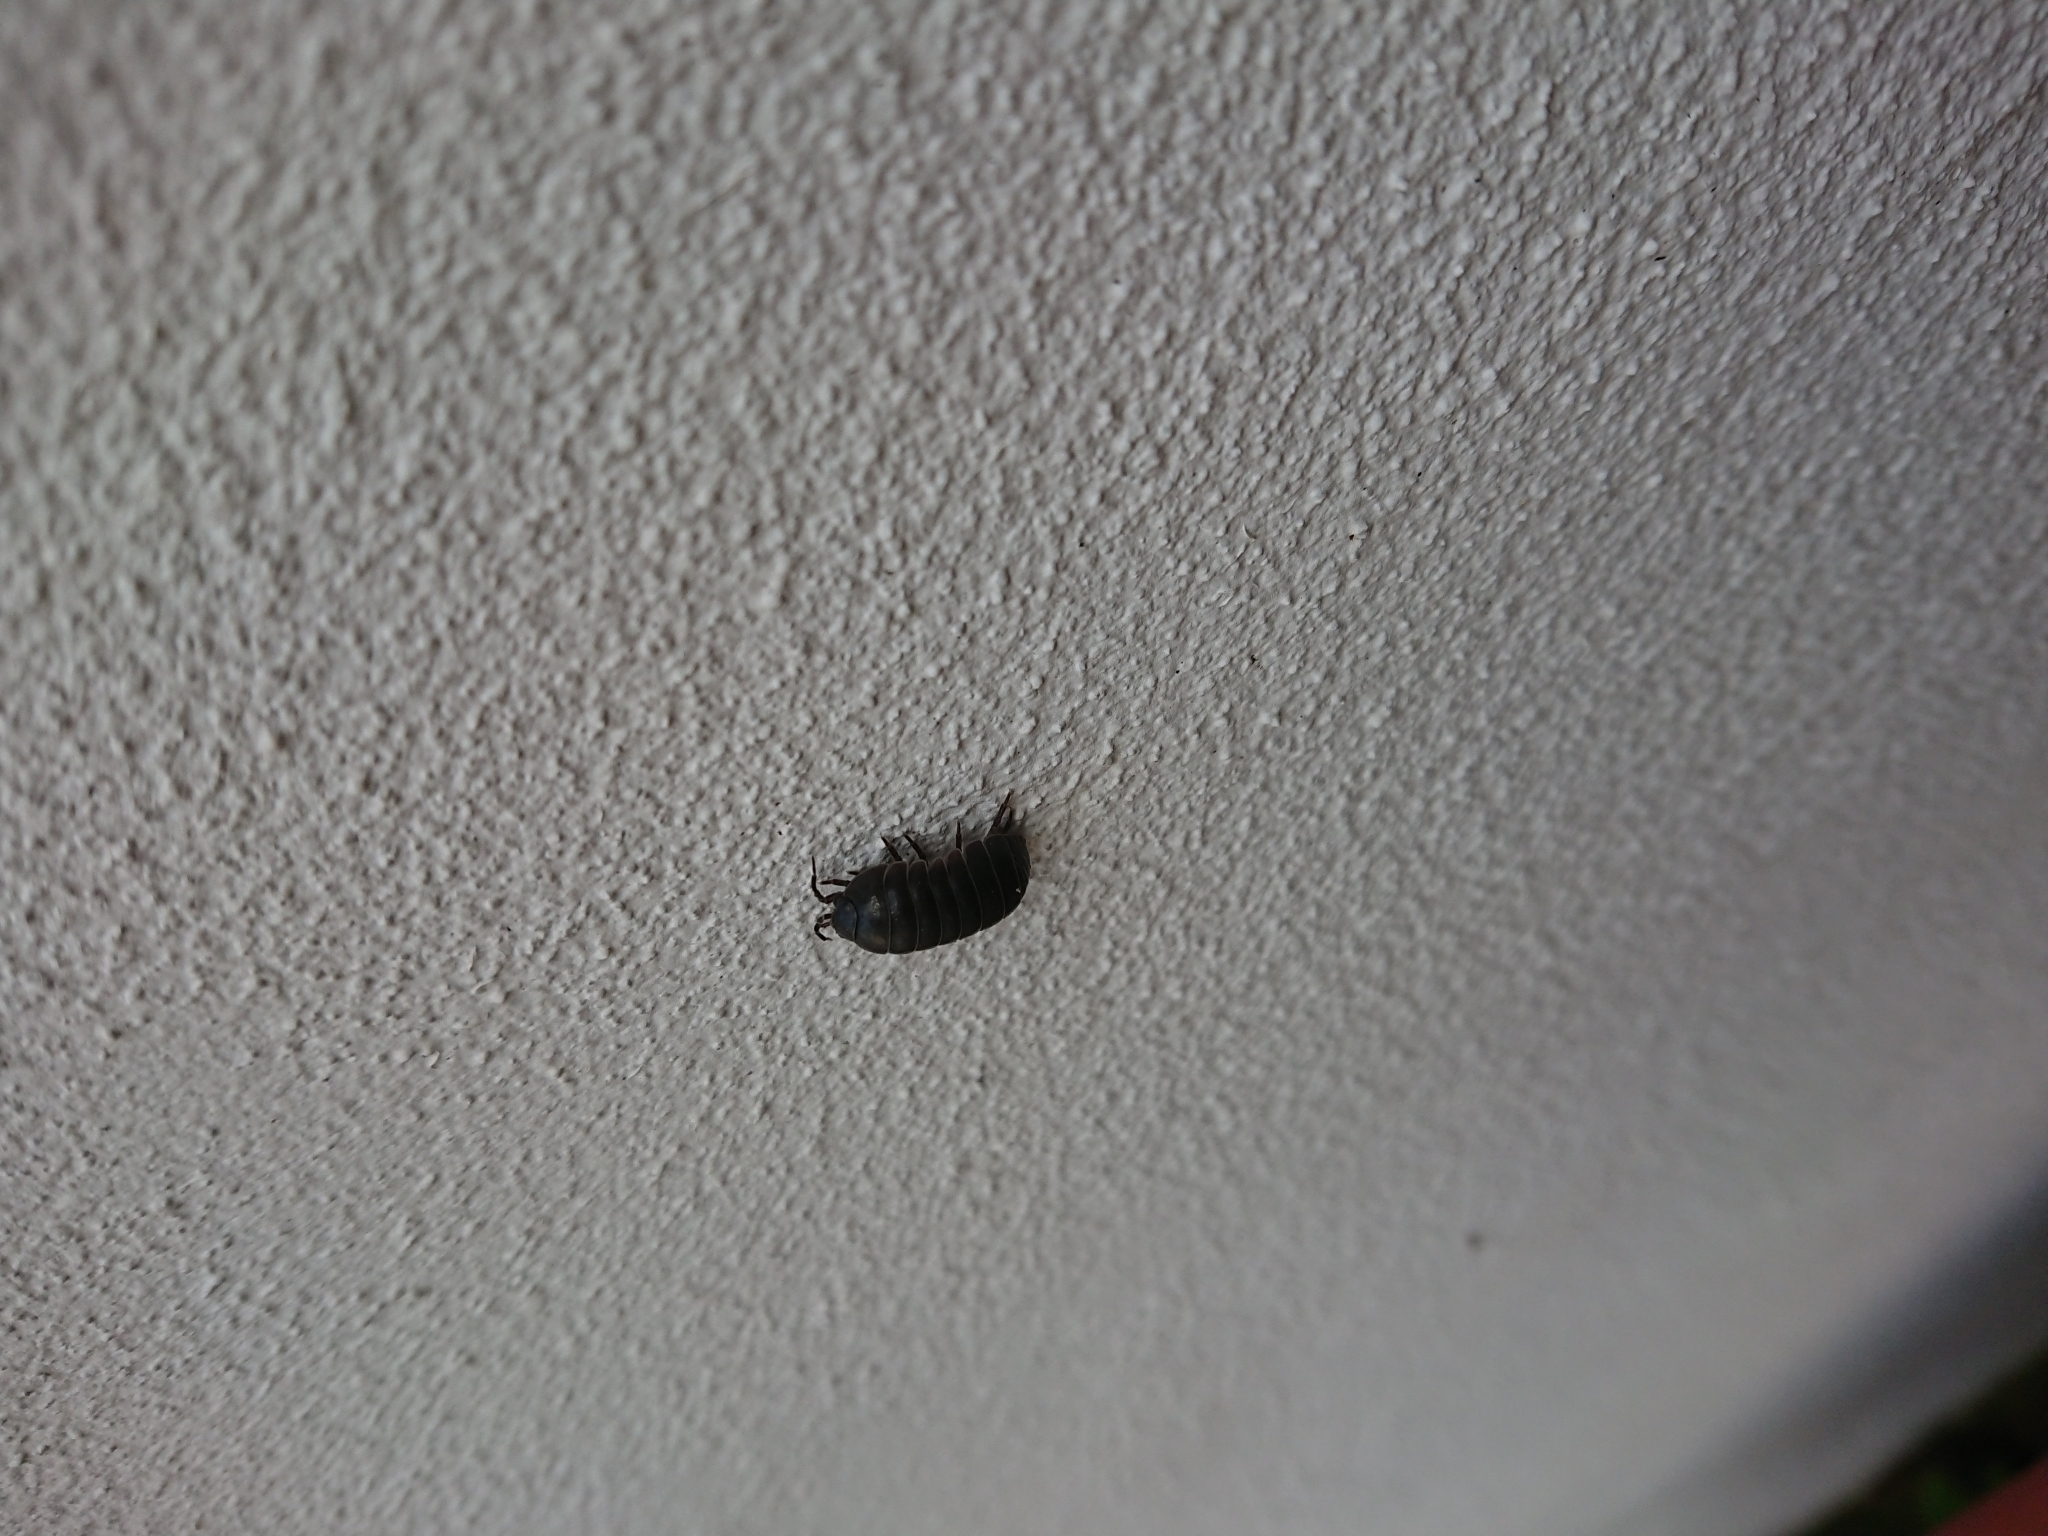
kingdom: Animalia
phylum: Arthropoda
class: Malacostraca
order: Isopoda
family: Armadillidiidae
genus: Armadillidium
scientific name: Armadillidium vulgare
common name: Common pill woodlouse
